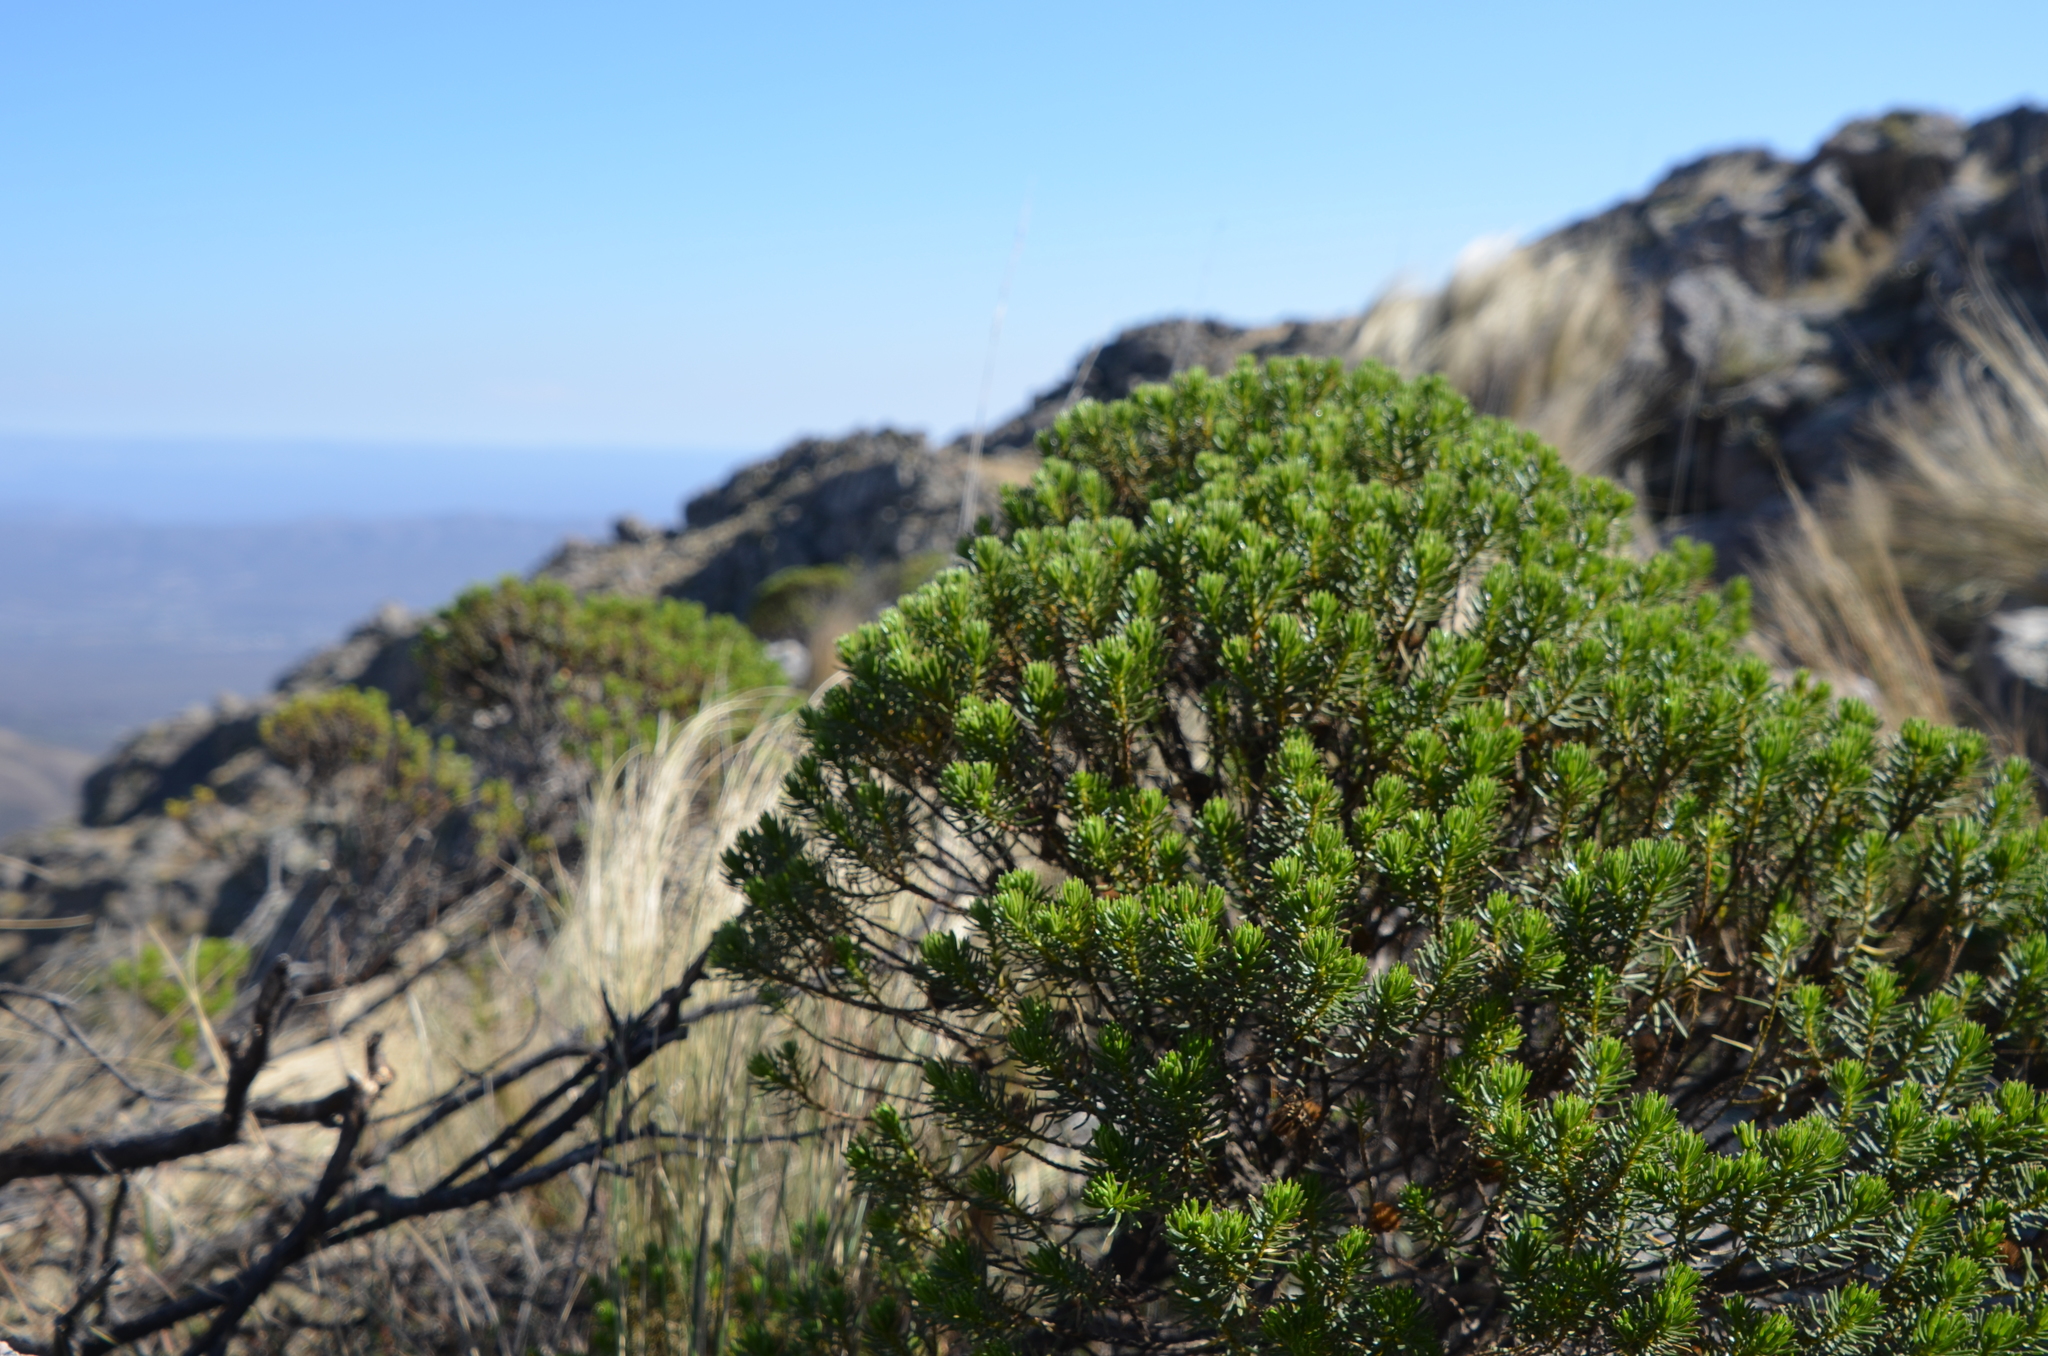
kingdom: Plantae
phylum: Tracheophyta
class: Magnoliopsida
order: Asterales
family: Asteraceae
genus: Baccharis
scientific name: Baccharis aliena
